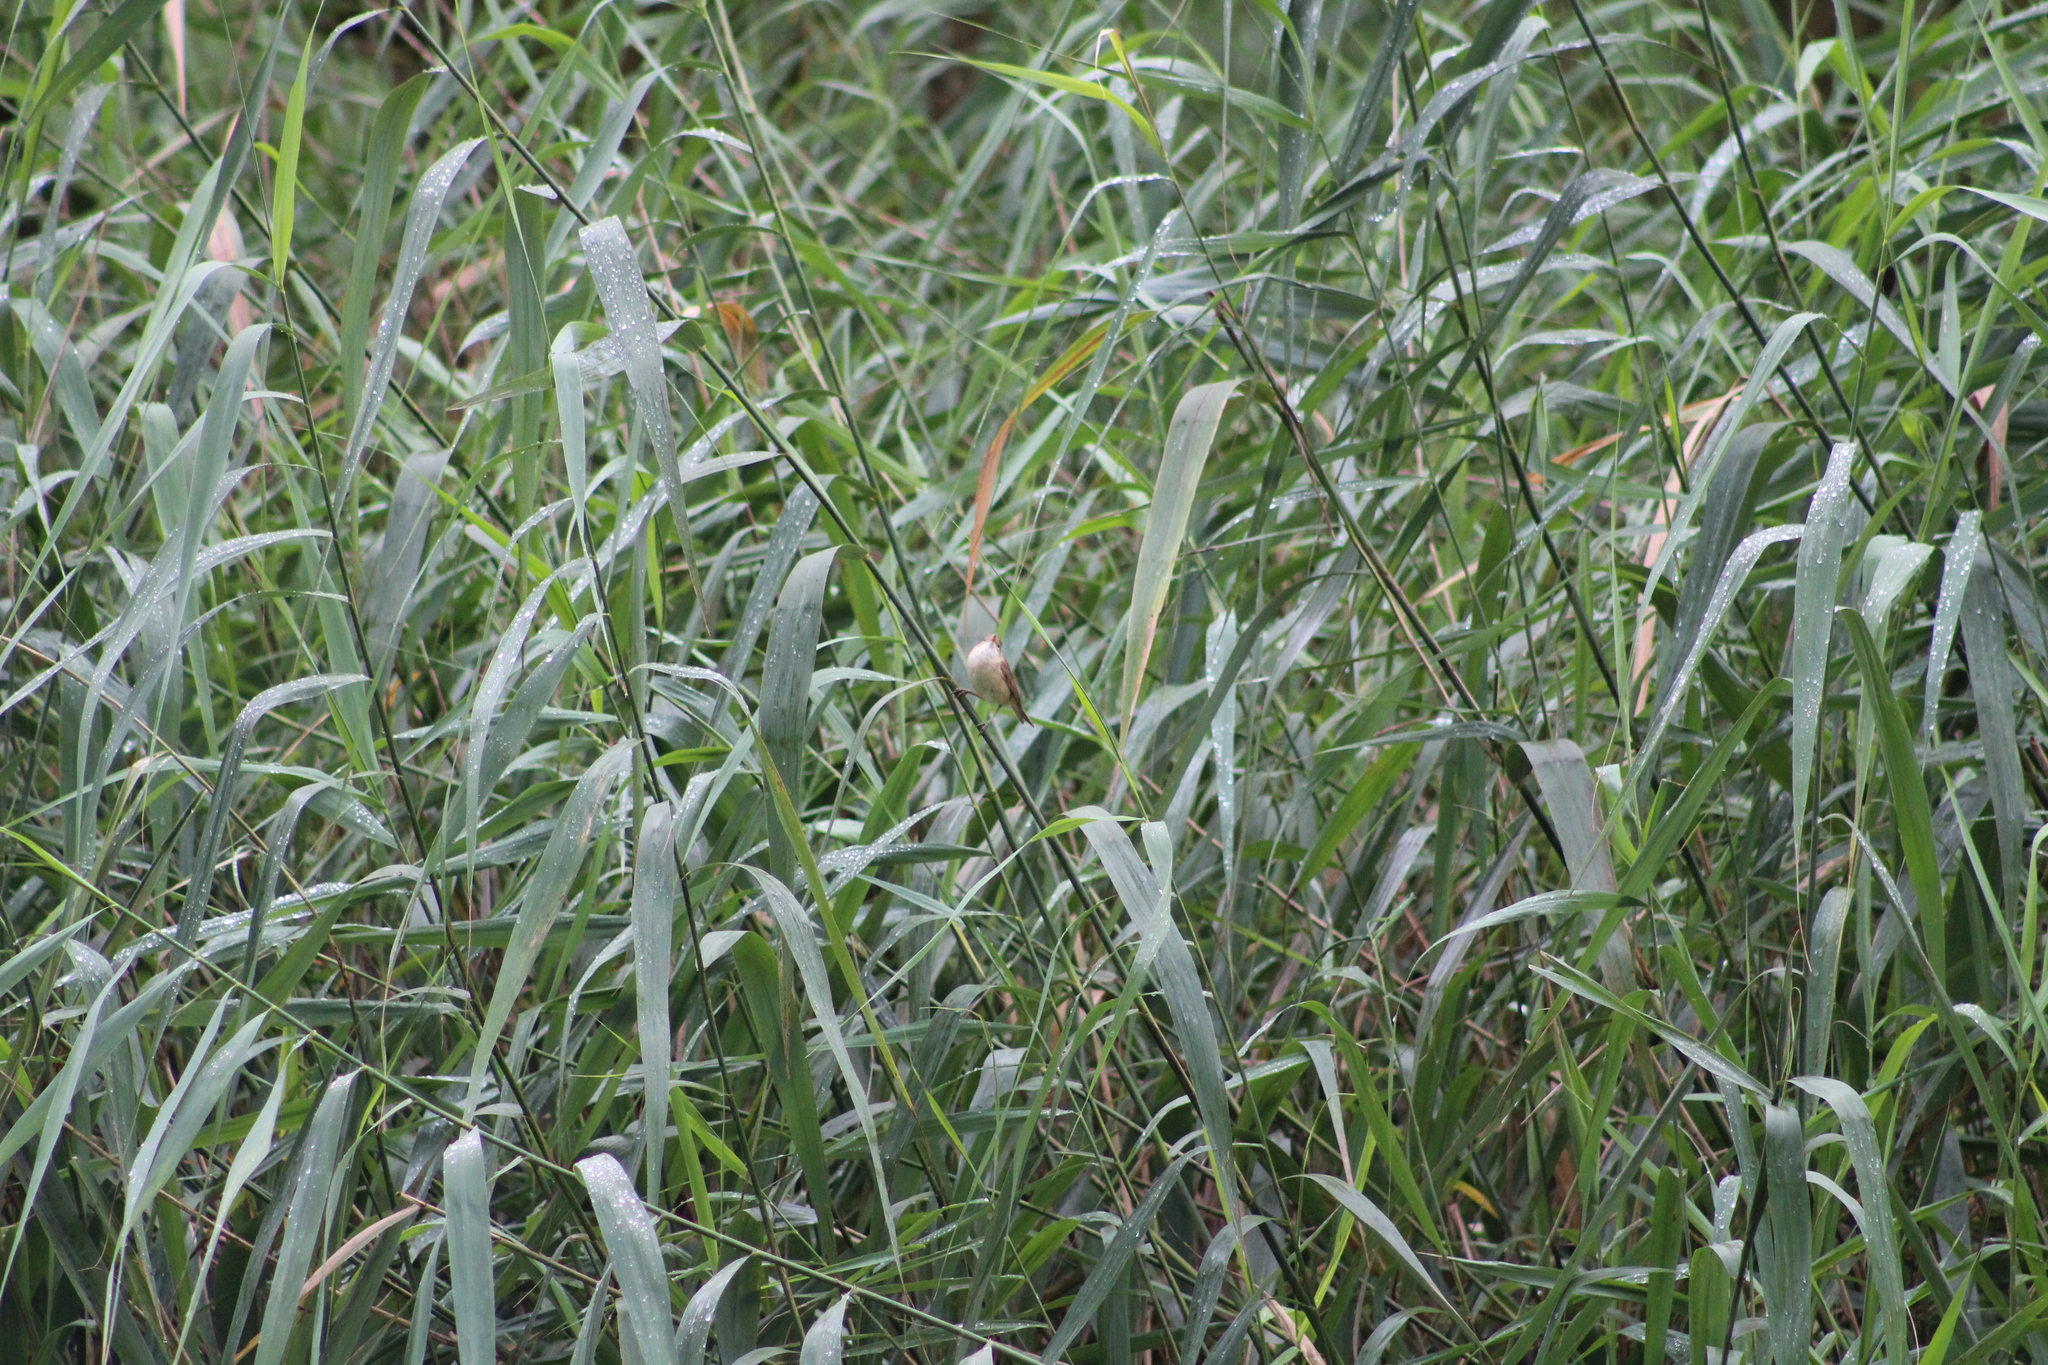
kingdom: Animalia
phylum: Chordata
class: Aves
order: Passeriformes
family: Acrocephalidae
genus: Acrocephalus
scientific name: Acrocephalus scirpaceus
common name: Eurasian reed warbler
